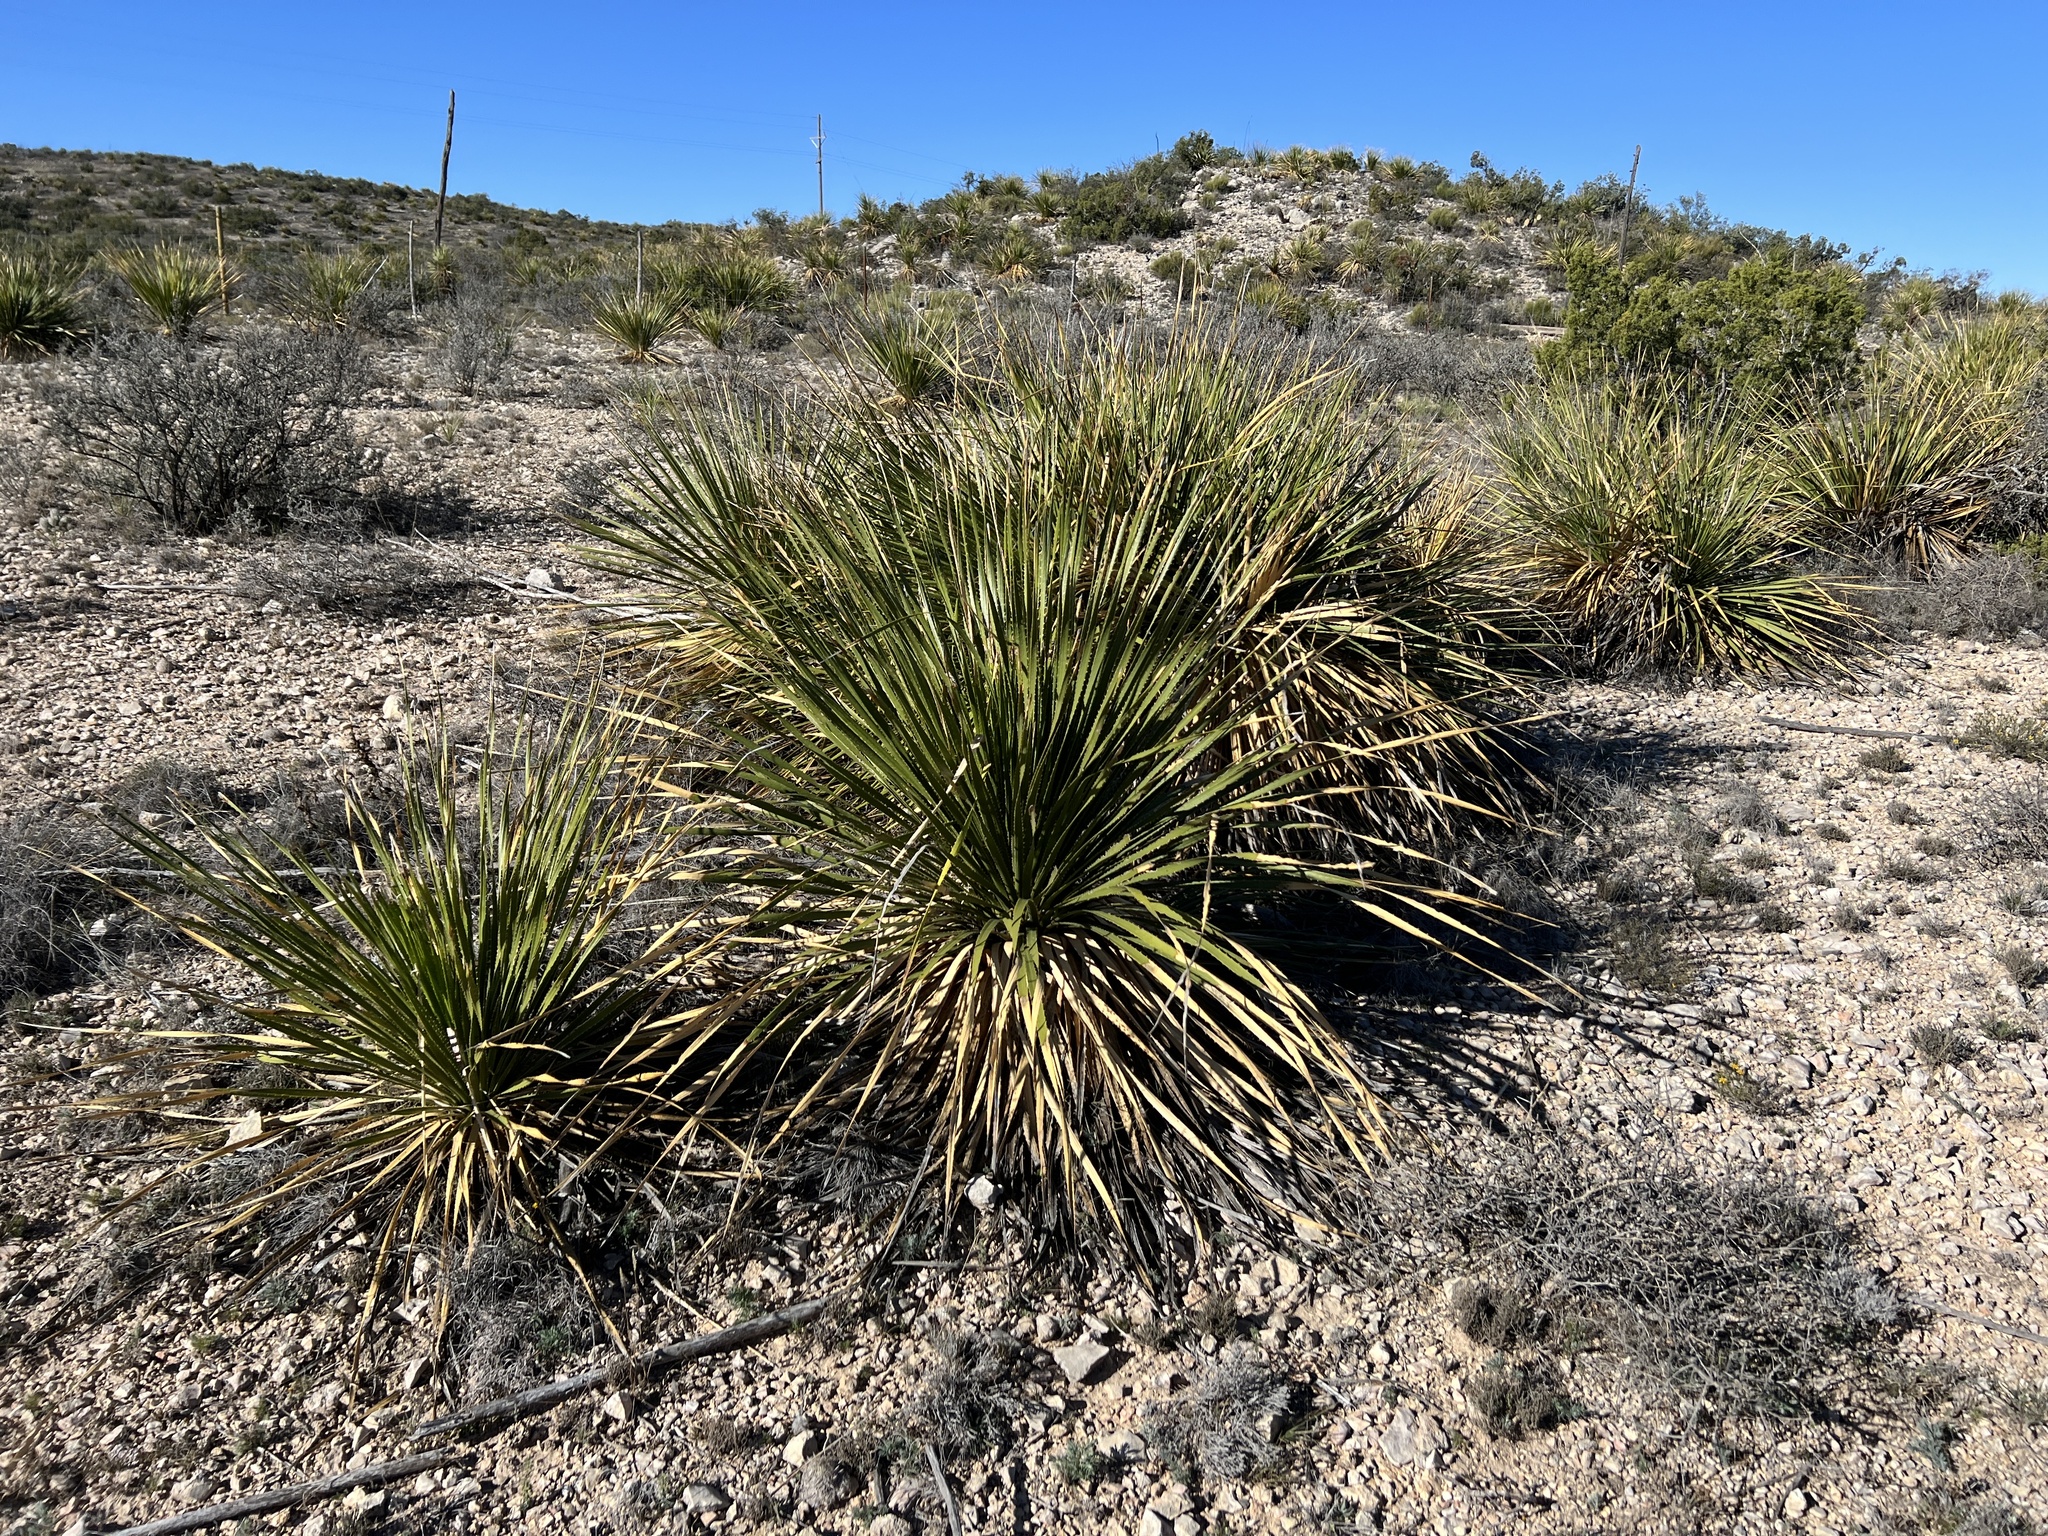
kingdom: Plantae
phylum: Tracheophyta
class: Liliopsida
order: Asparagales
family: Asparagaceae
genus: Dasylirion
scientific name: Dasylirion texanum
